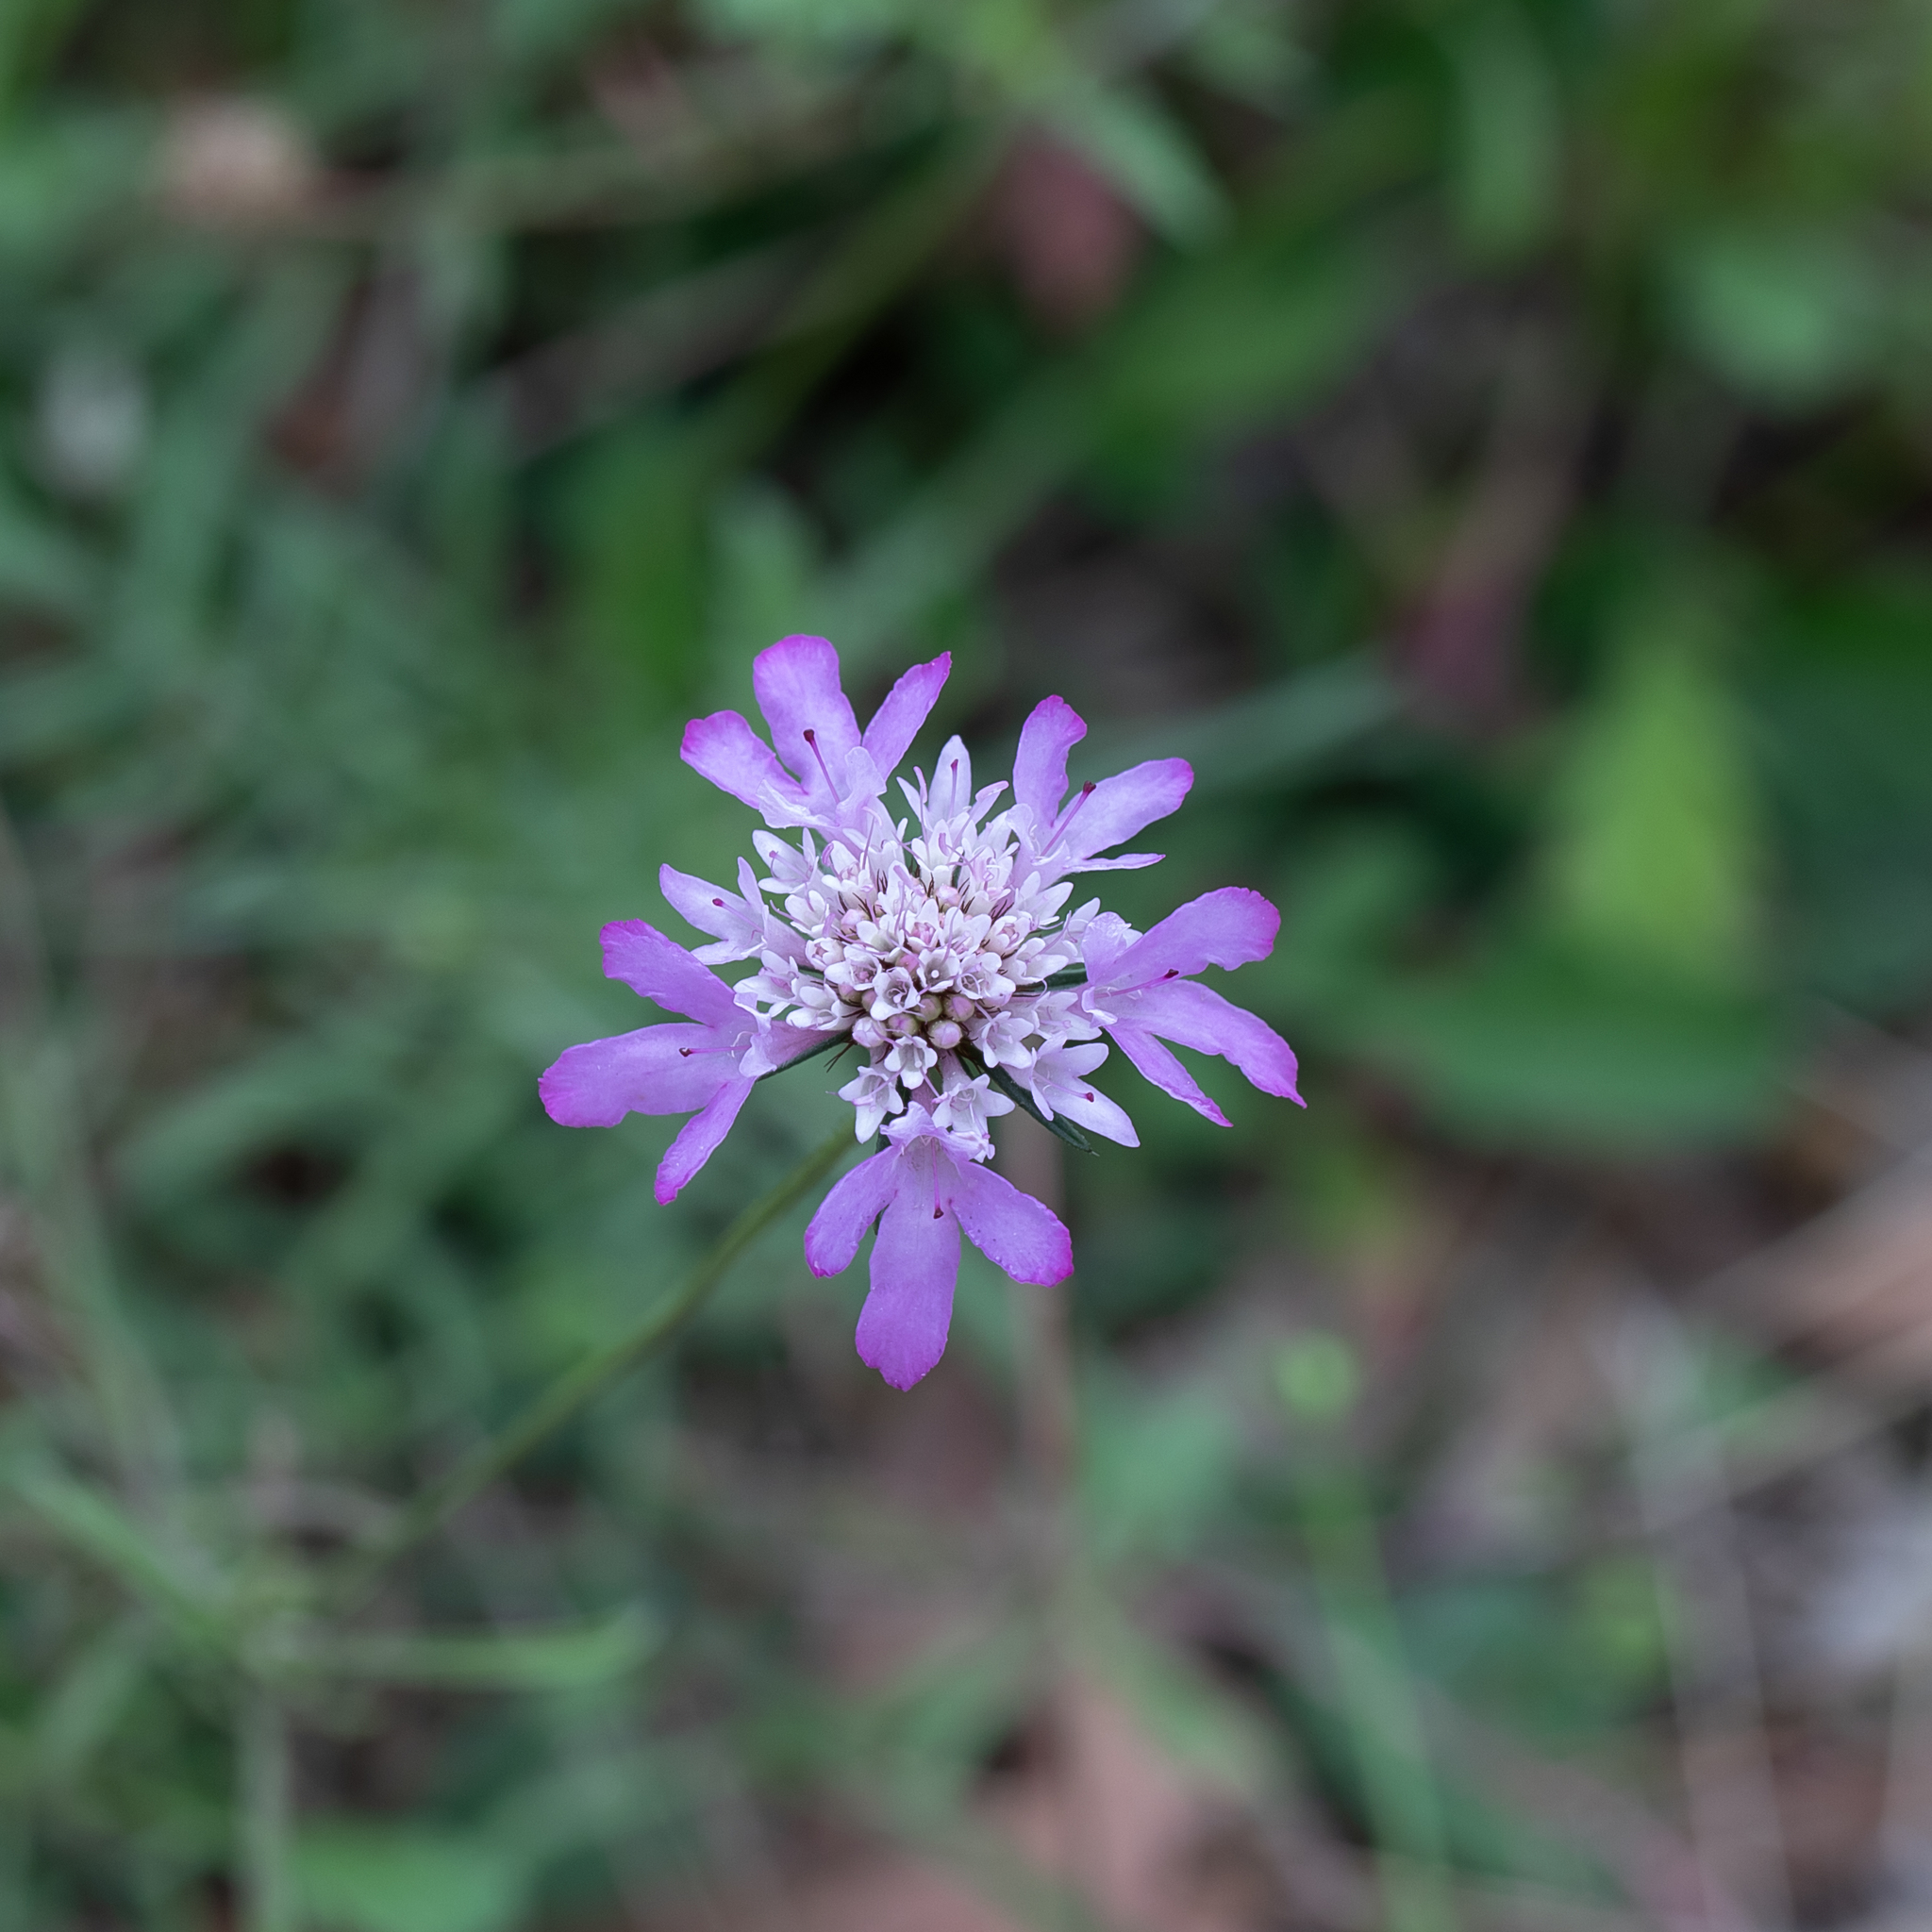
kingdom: Plantae
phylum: Tracheophyta
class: Magnoliopsida
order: Dipsacales
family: Caprifoliaceae
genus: Sixalix
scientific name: Sixalix atropurpurea
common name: Sweet scabious
